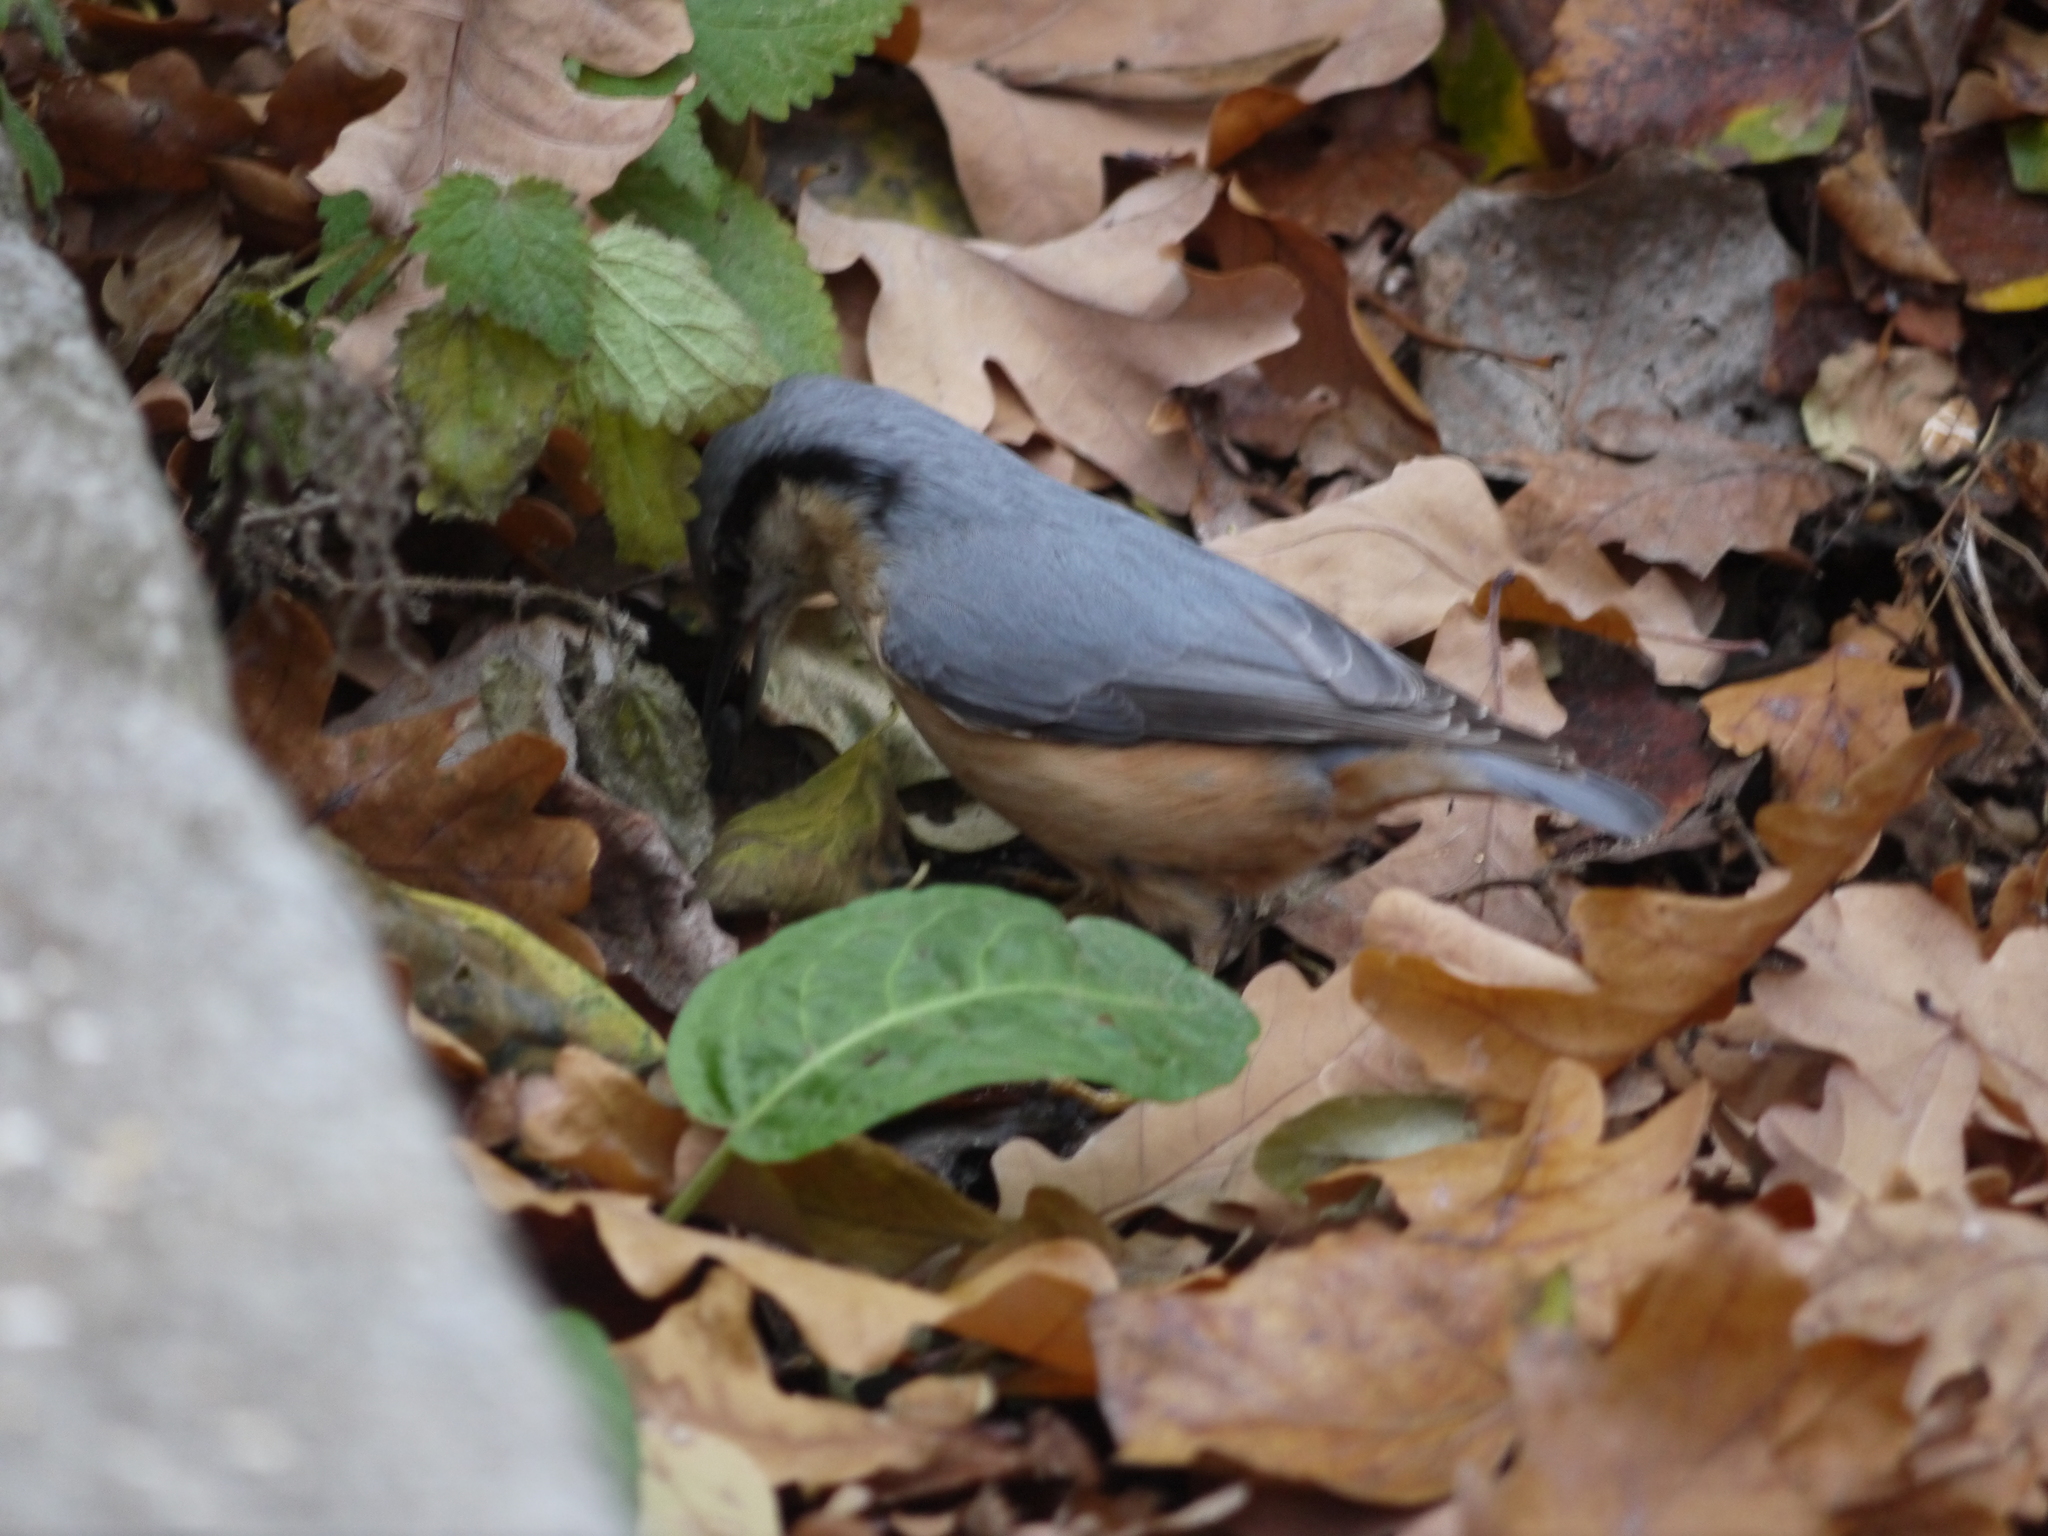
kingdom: Animalia
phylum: Chordata
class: Aves
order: Passeriformes
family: Sittidae
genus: Sitta
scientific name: Sitta europaea
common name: Eurasian nuthatch
